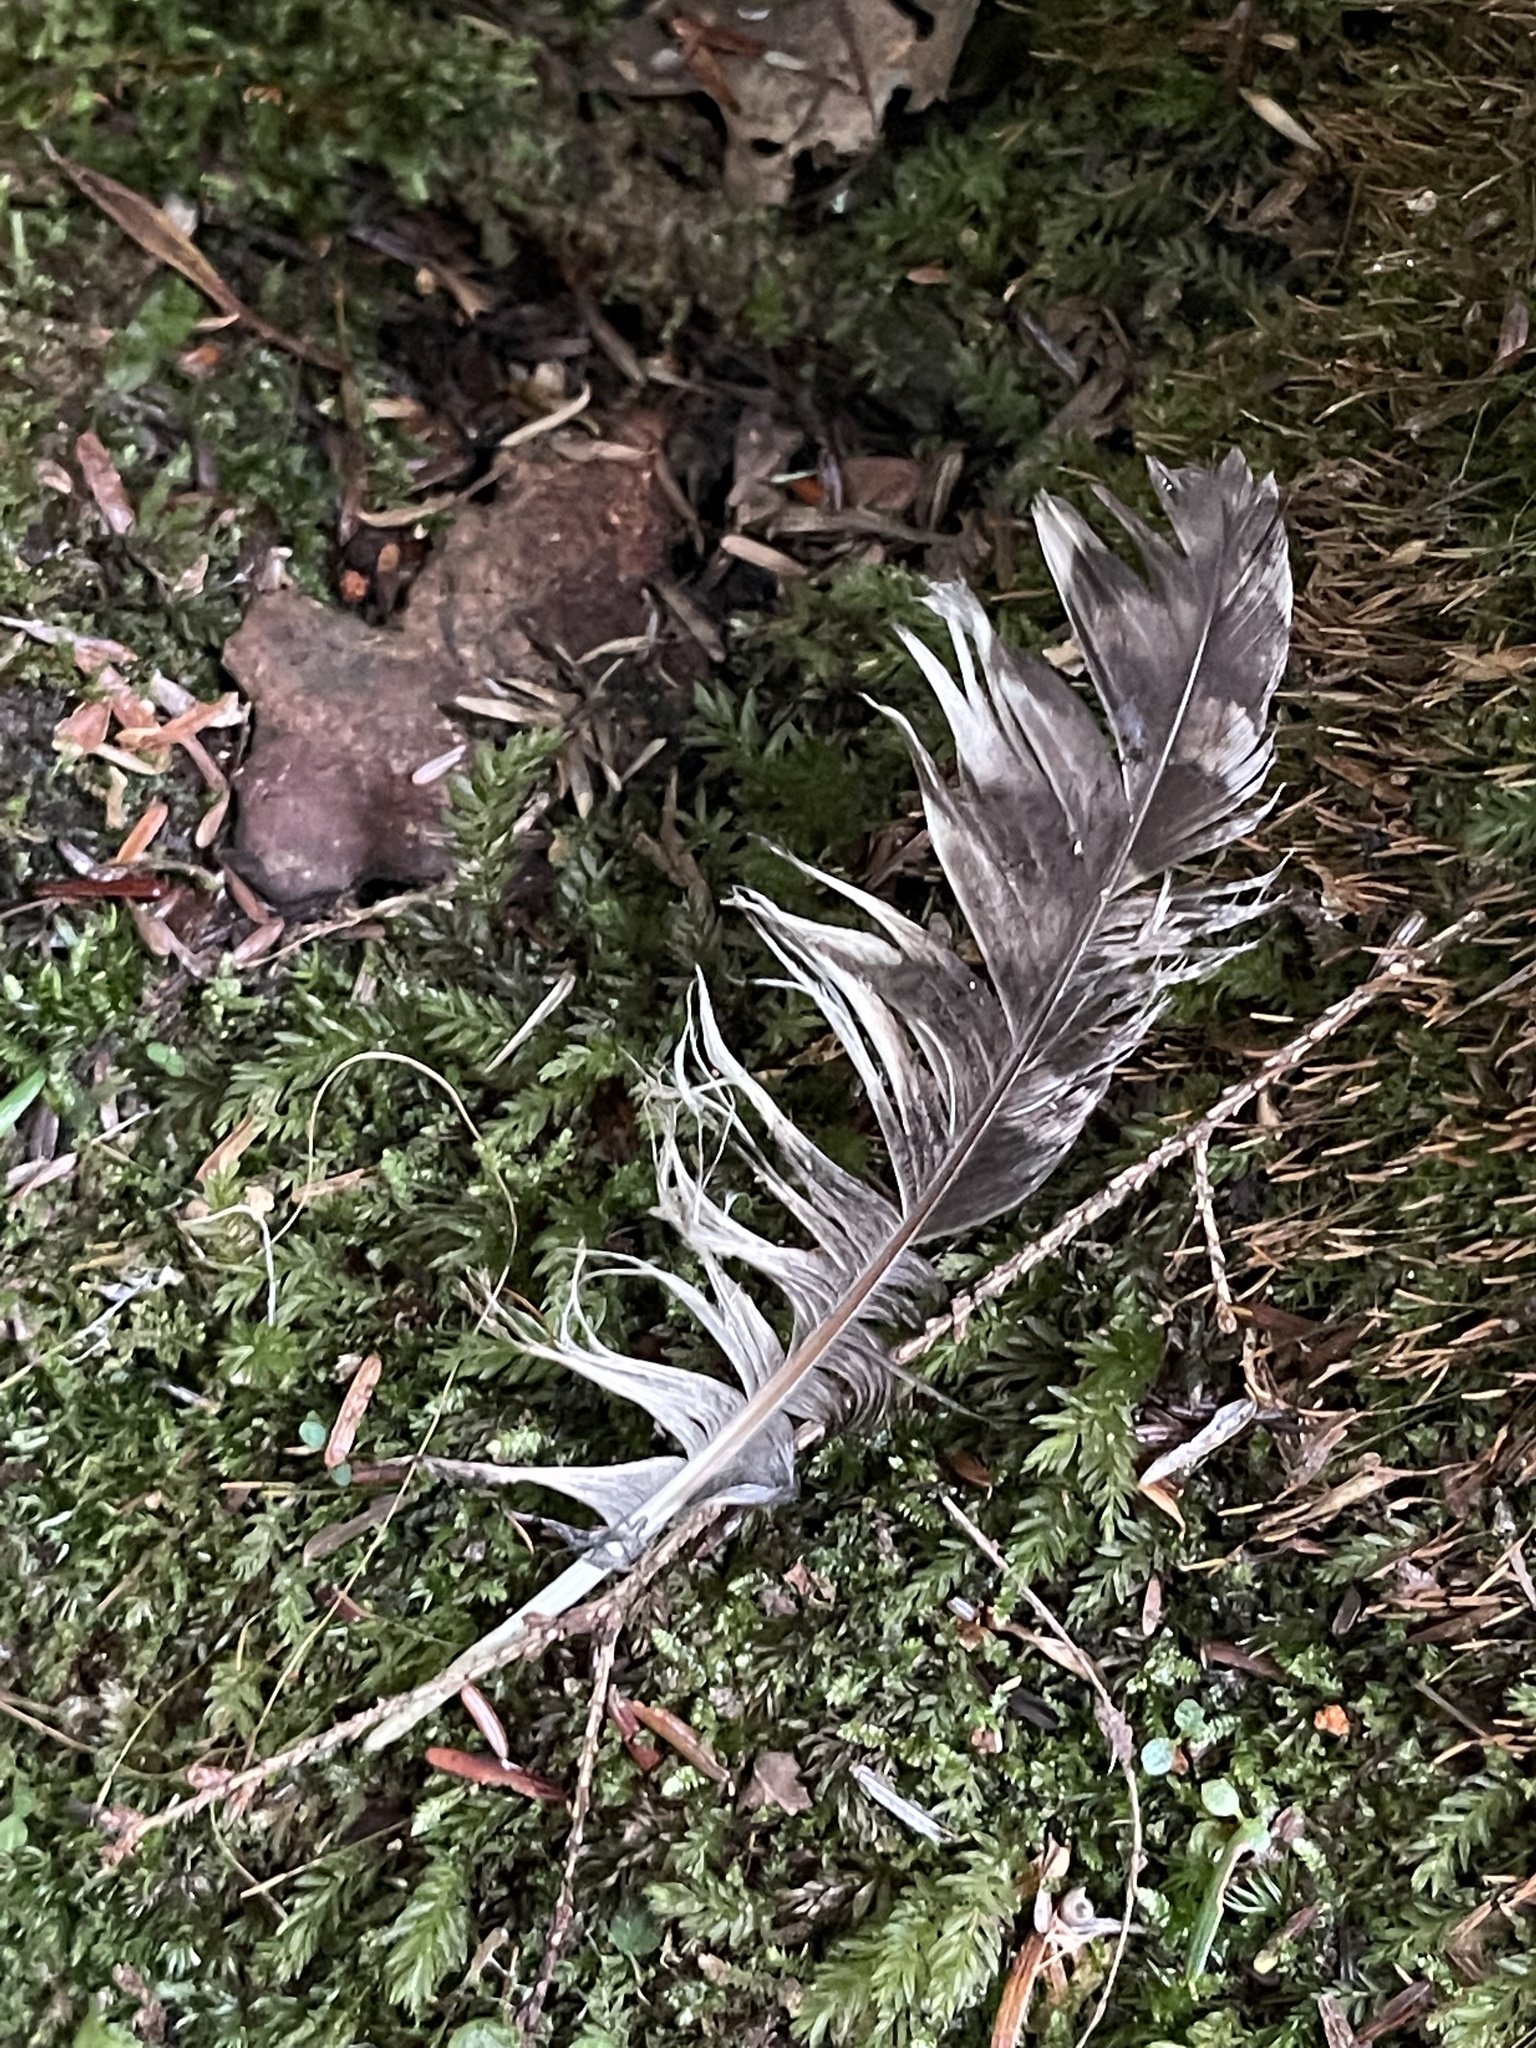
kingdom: Animalia
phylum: Chordata
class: Aves
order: Strigiformes
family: Strigidae
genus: Megascops
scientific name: Megascops asio
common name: Eastern screech-owl
